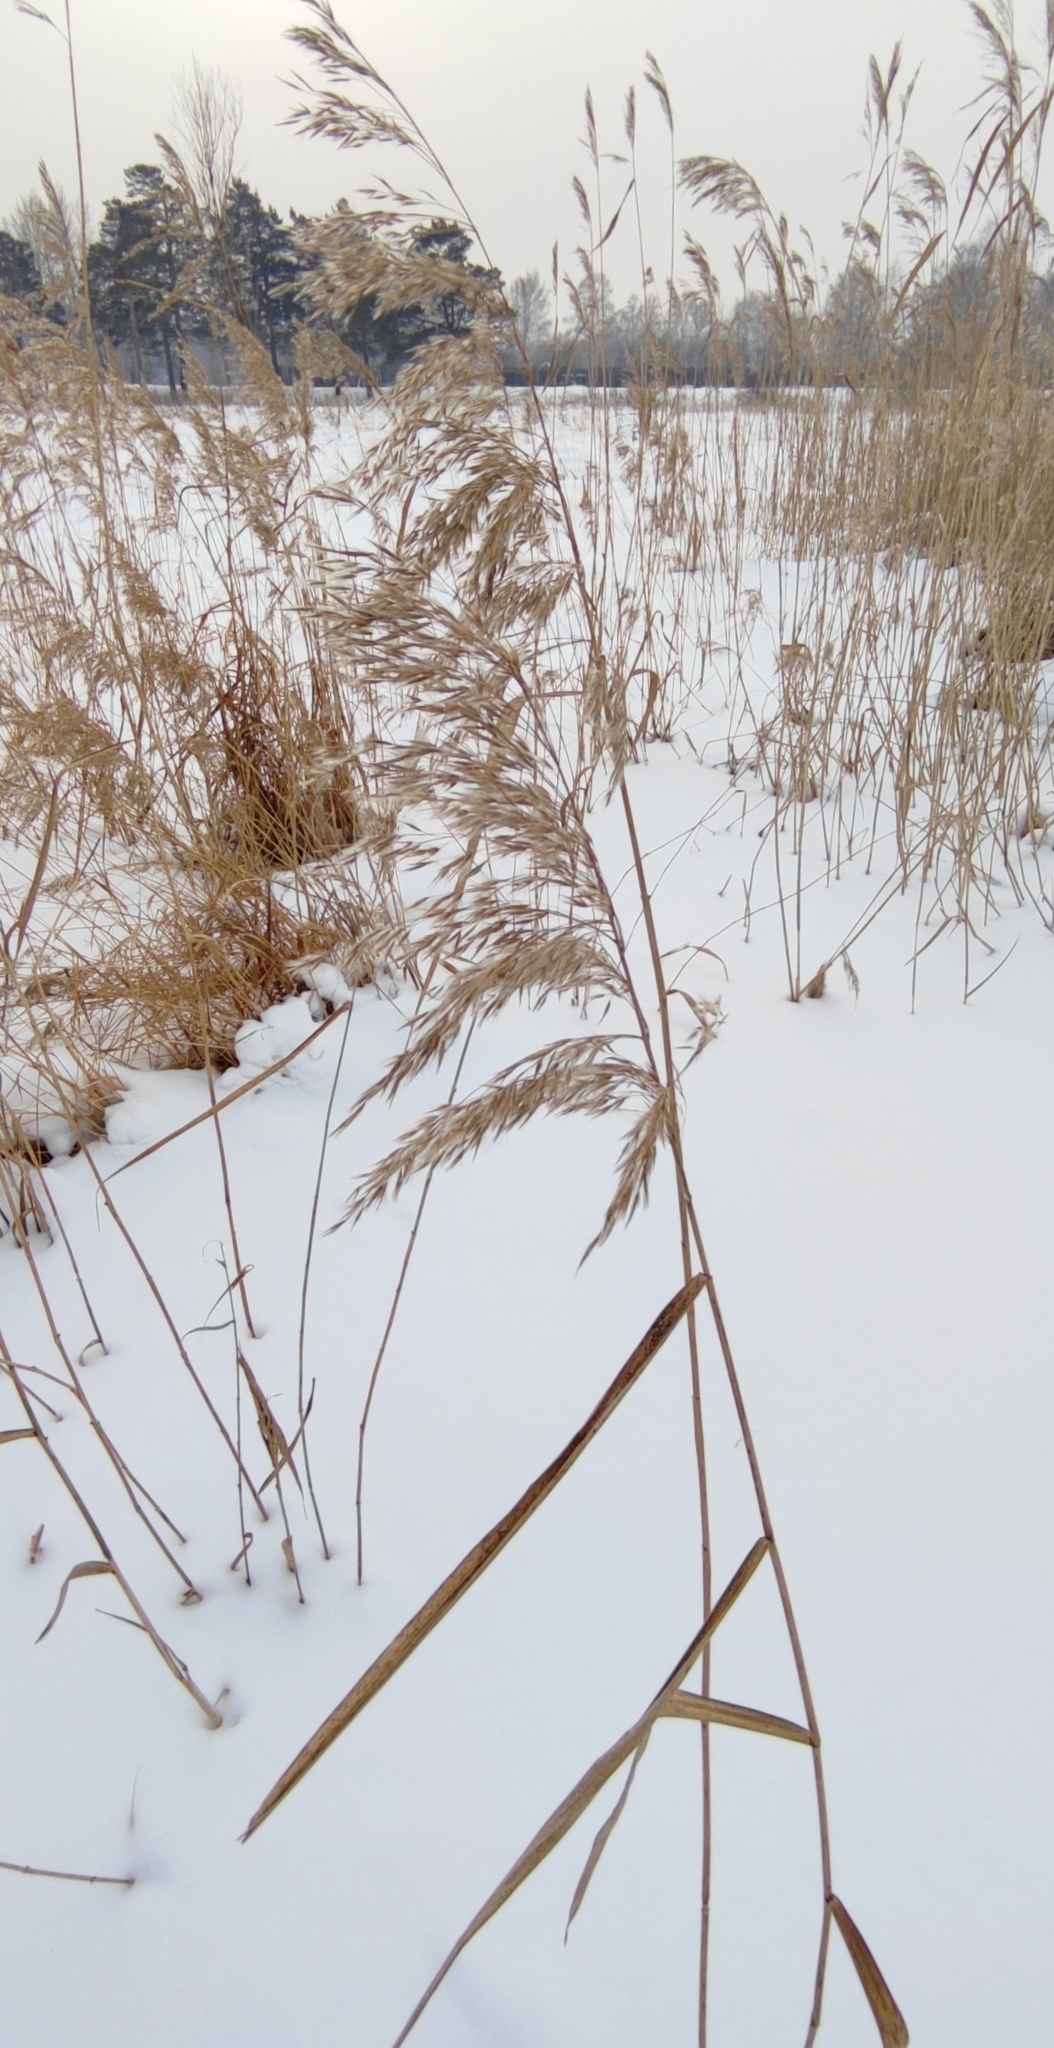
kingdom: Plantae
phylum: Tracheophyta
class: Liliopsida
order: Poales
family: Poaceae
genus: Phragmites
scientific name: Phragmites australis
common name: Common reed
